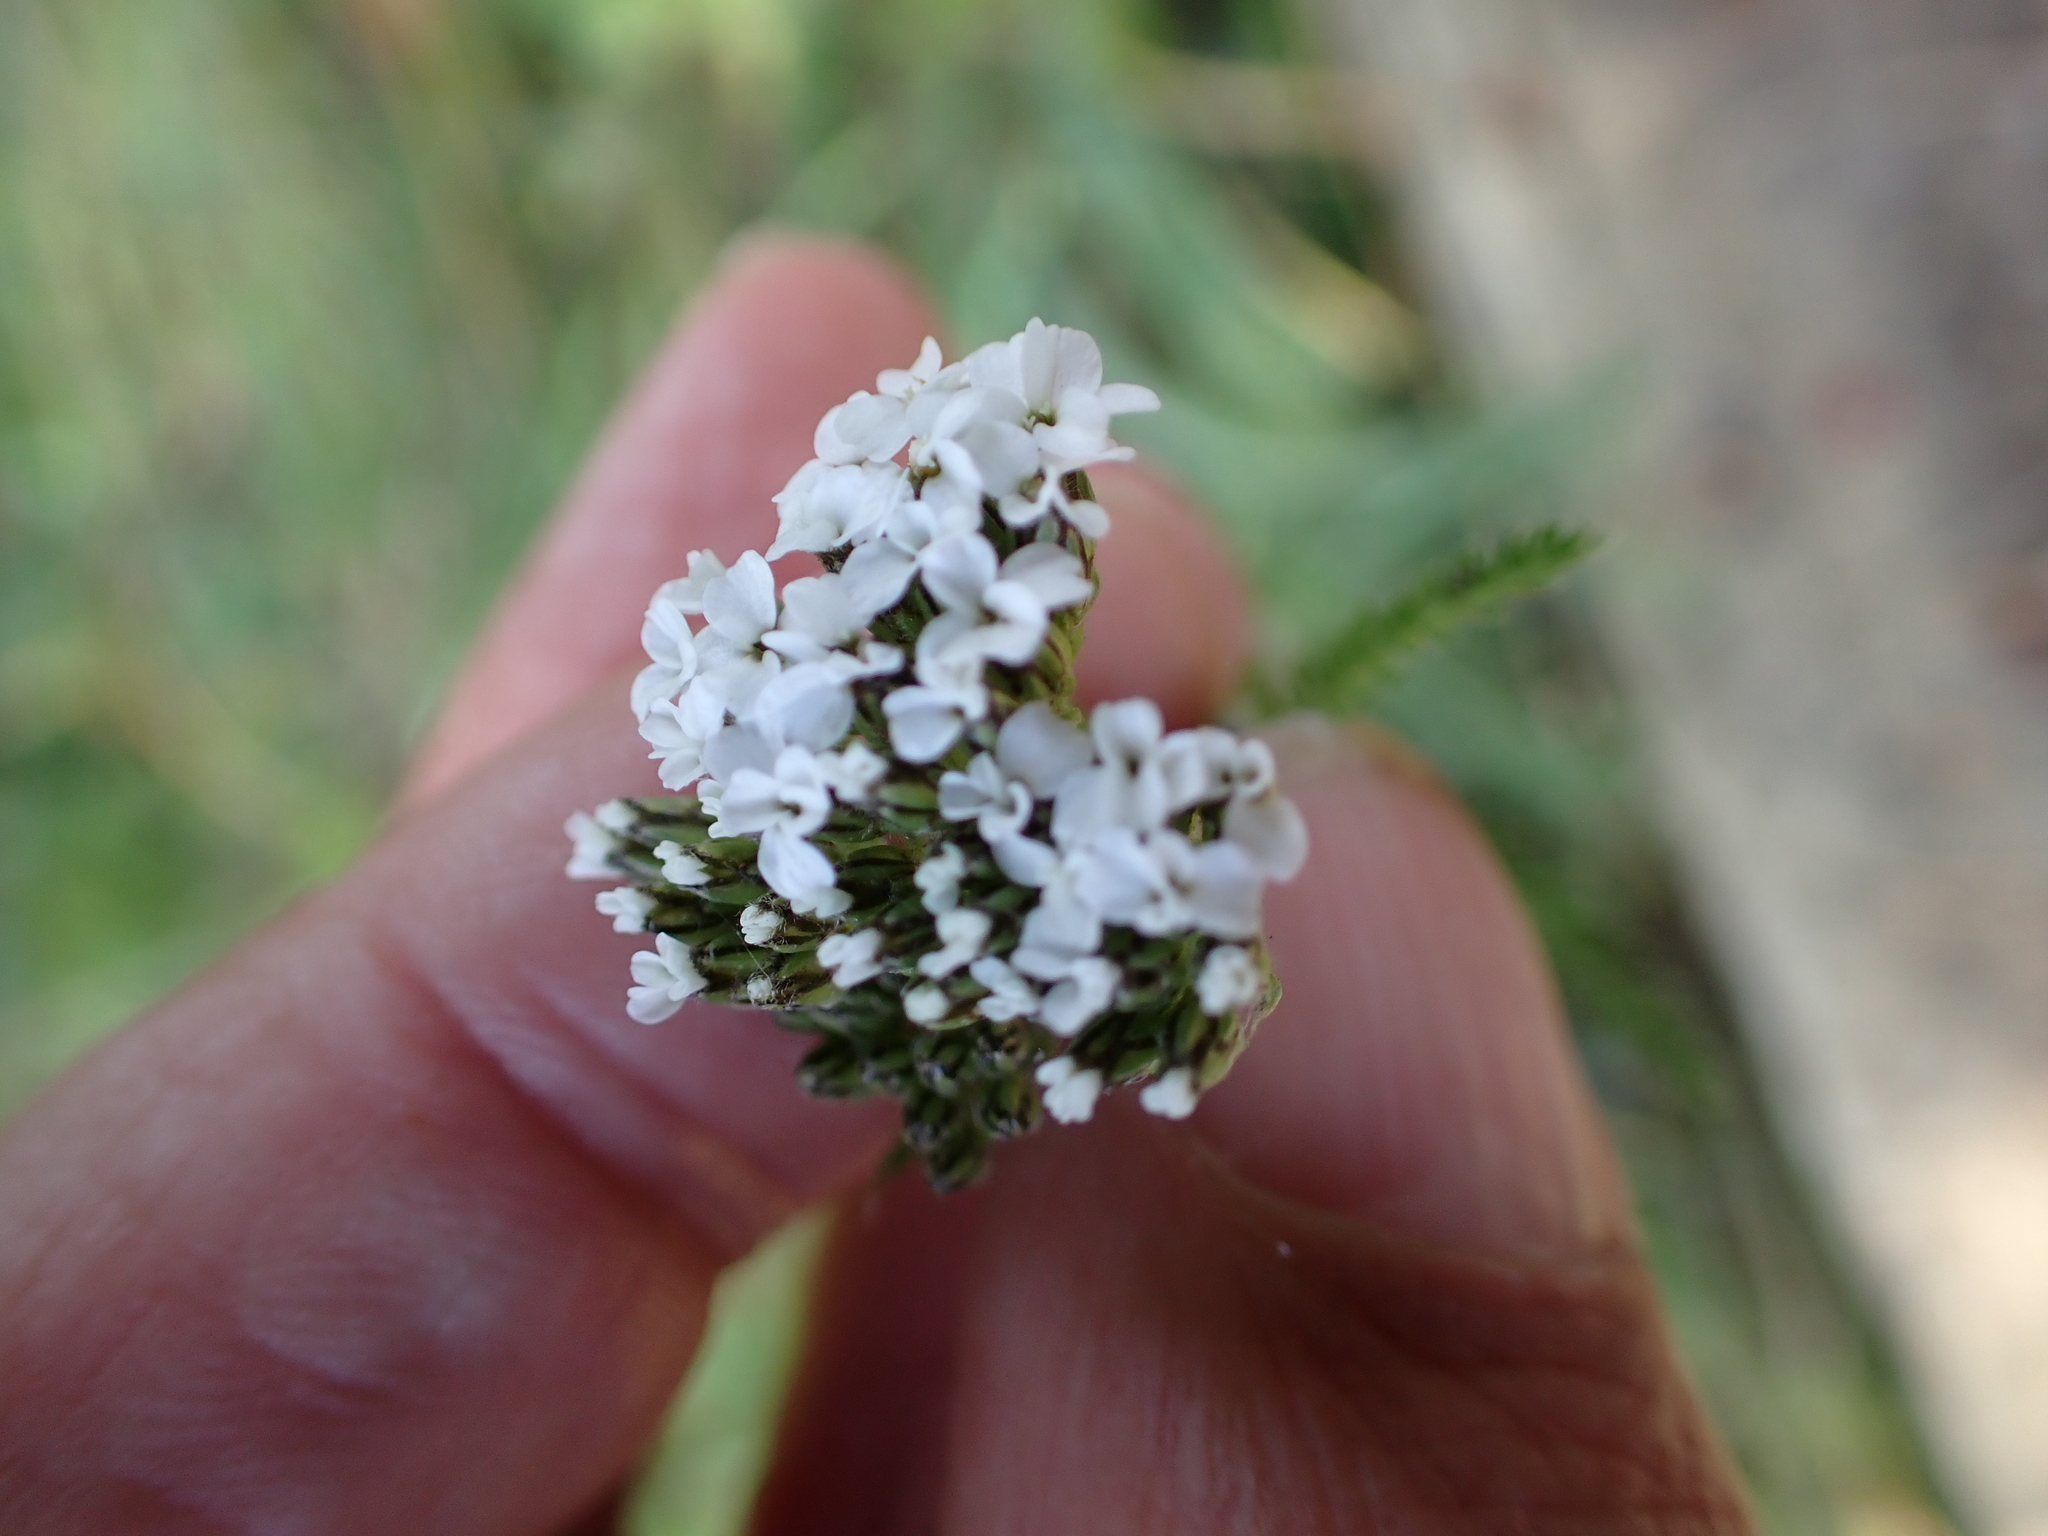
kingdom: Plantae
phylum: Tracheophyta
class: Magnoliopsida
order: Asterales
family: Asteraceae
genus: Achillea
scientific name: Achillea millefolium
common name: Yarrow
